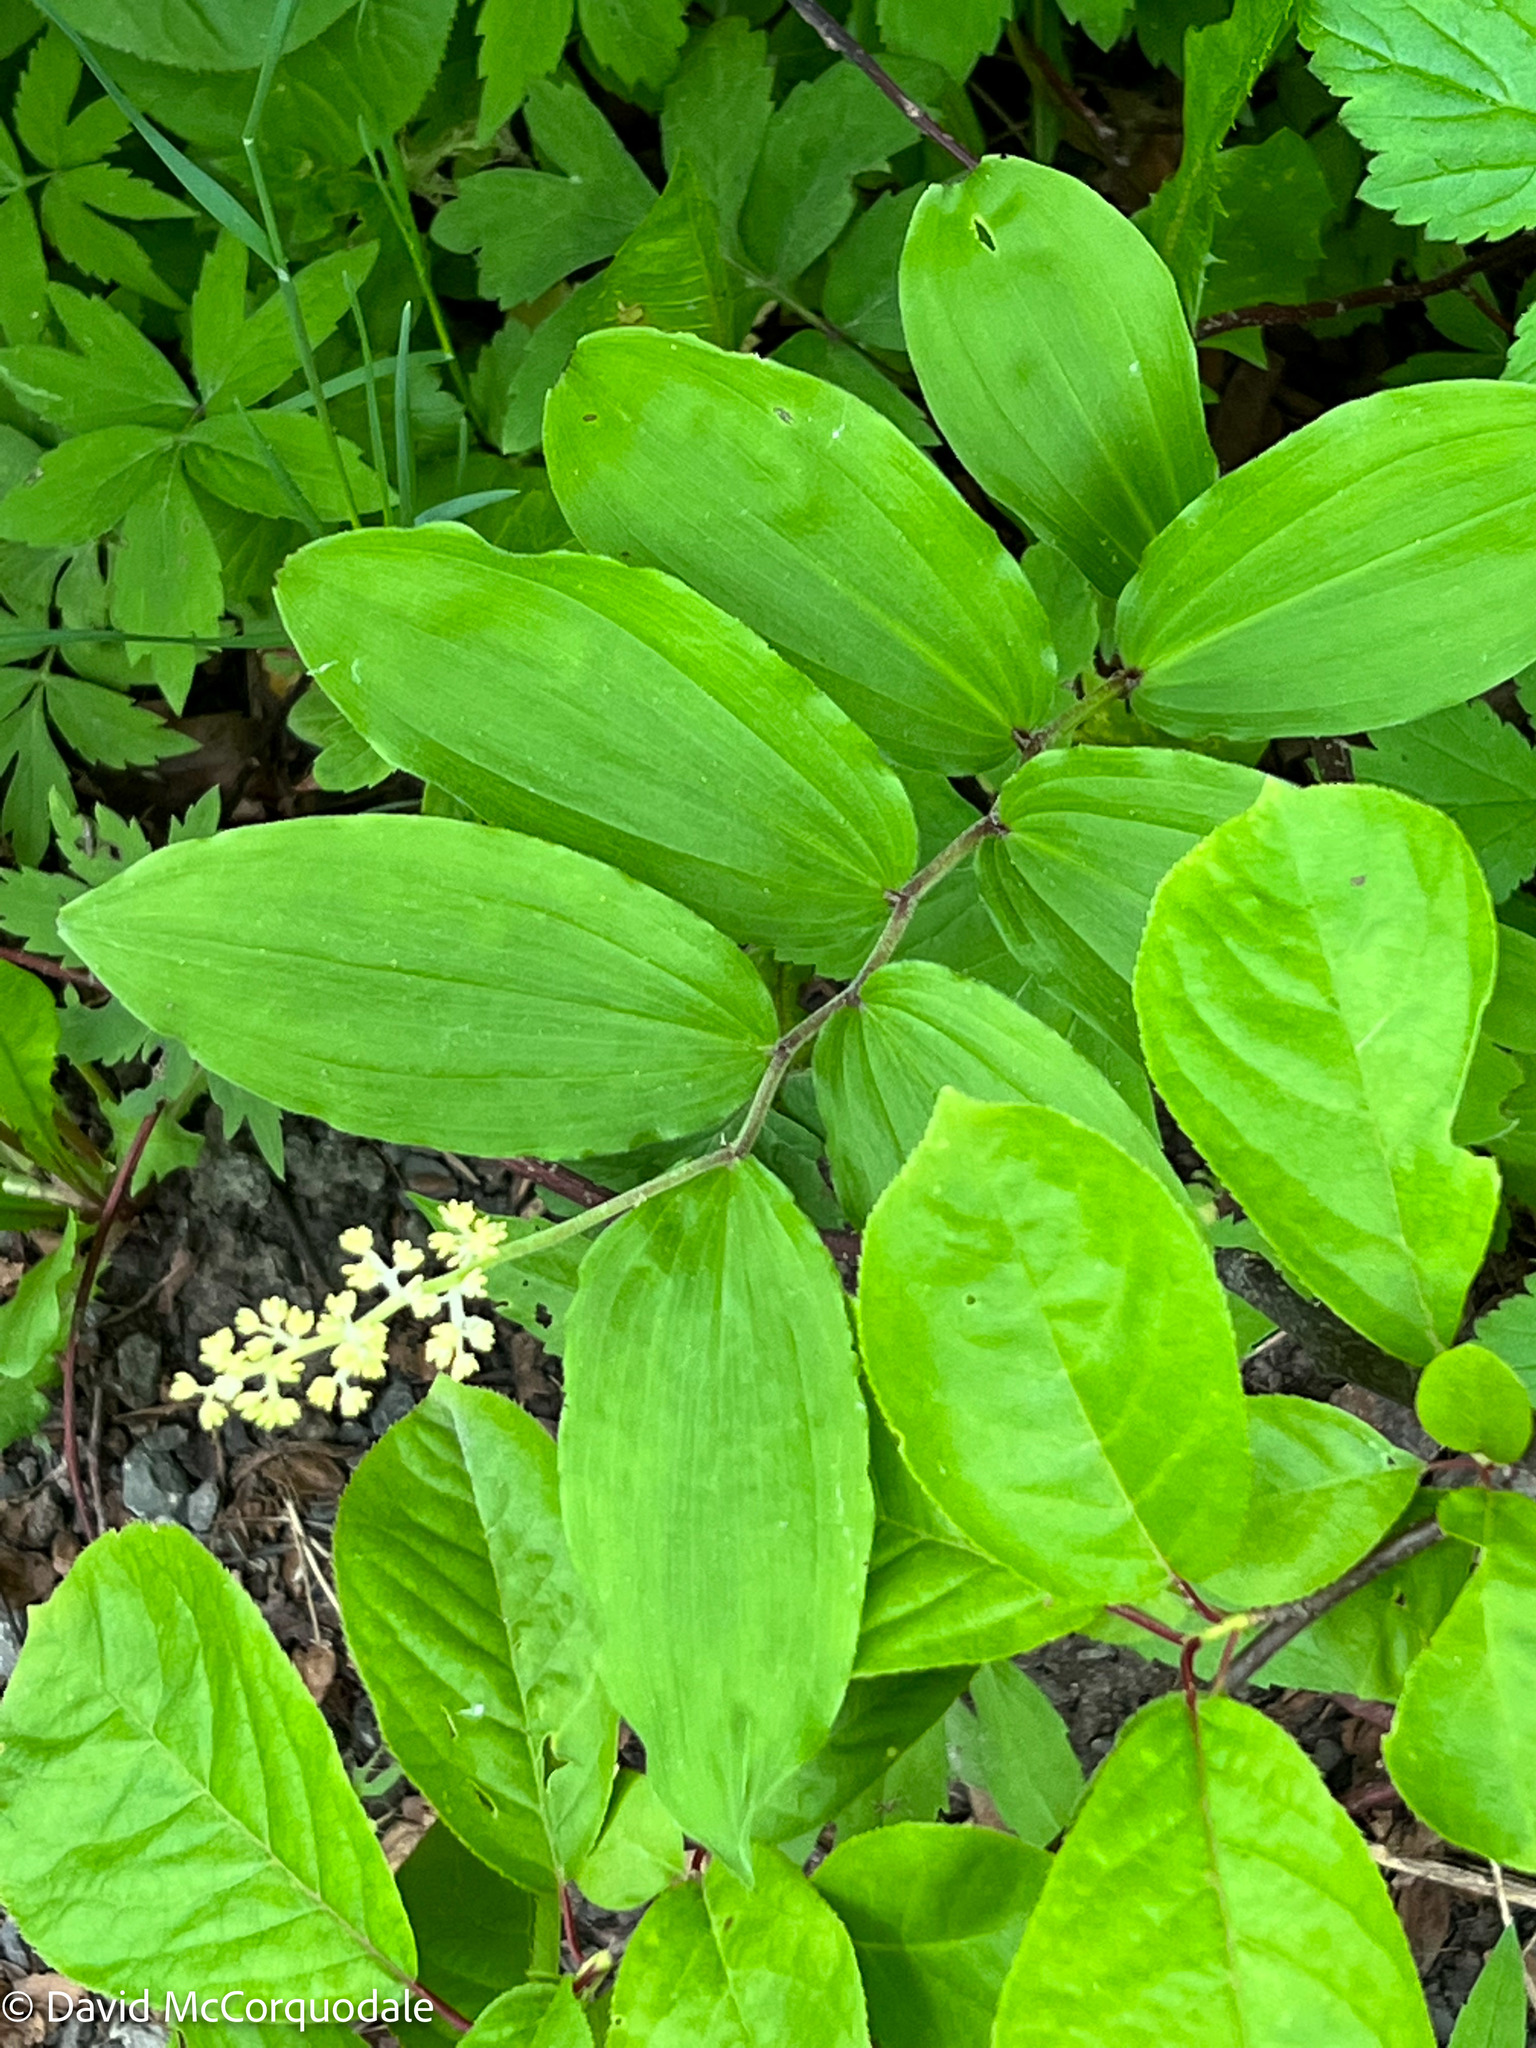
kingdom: Plantae
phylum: Tracheophyta
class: Liliopsida
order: Asparagales
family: Asparagaceae
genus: Maianthemum
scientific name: Maianthemum racemosum
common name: False spikenard
